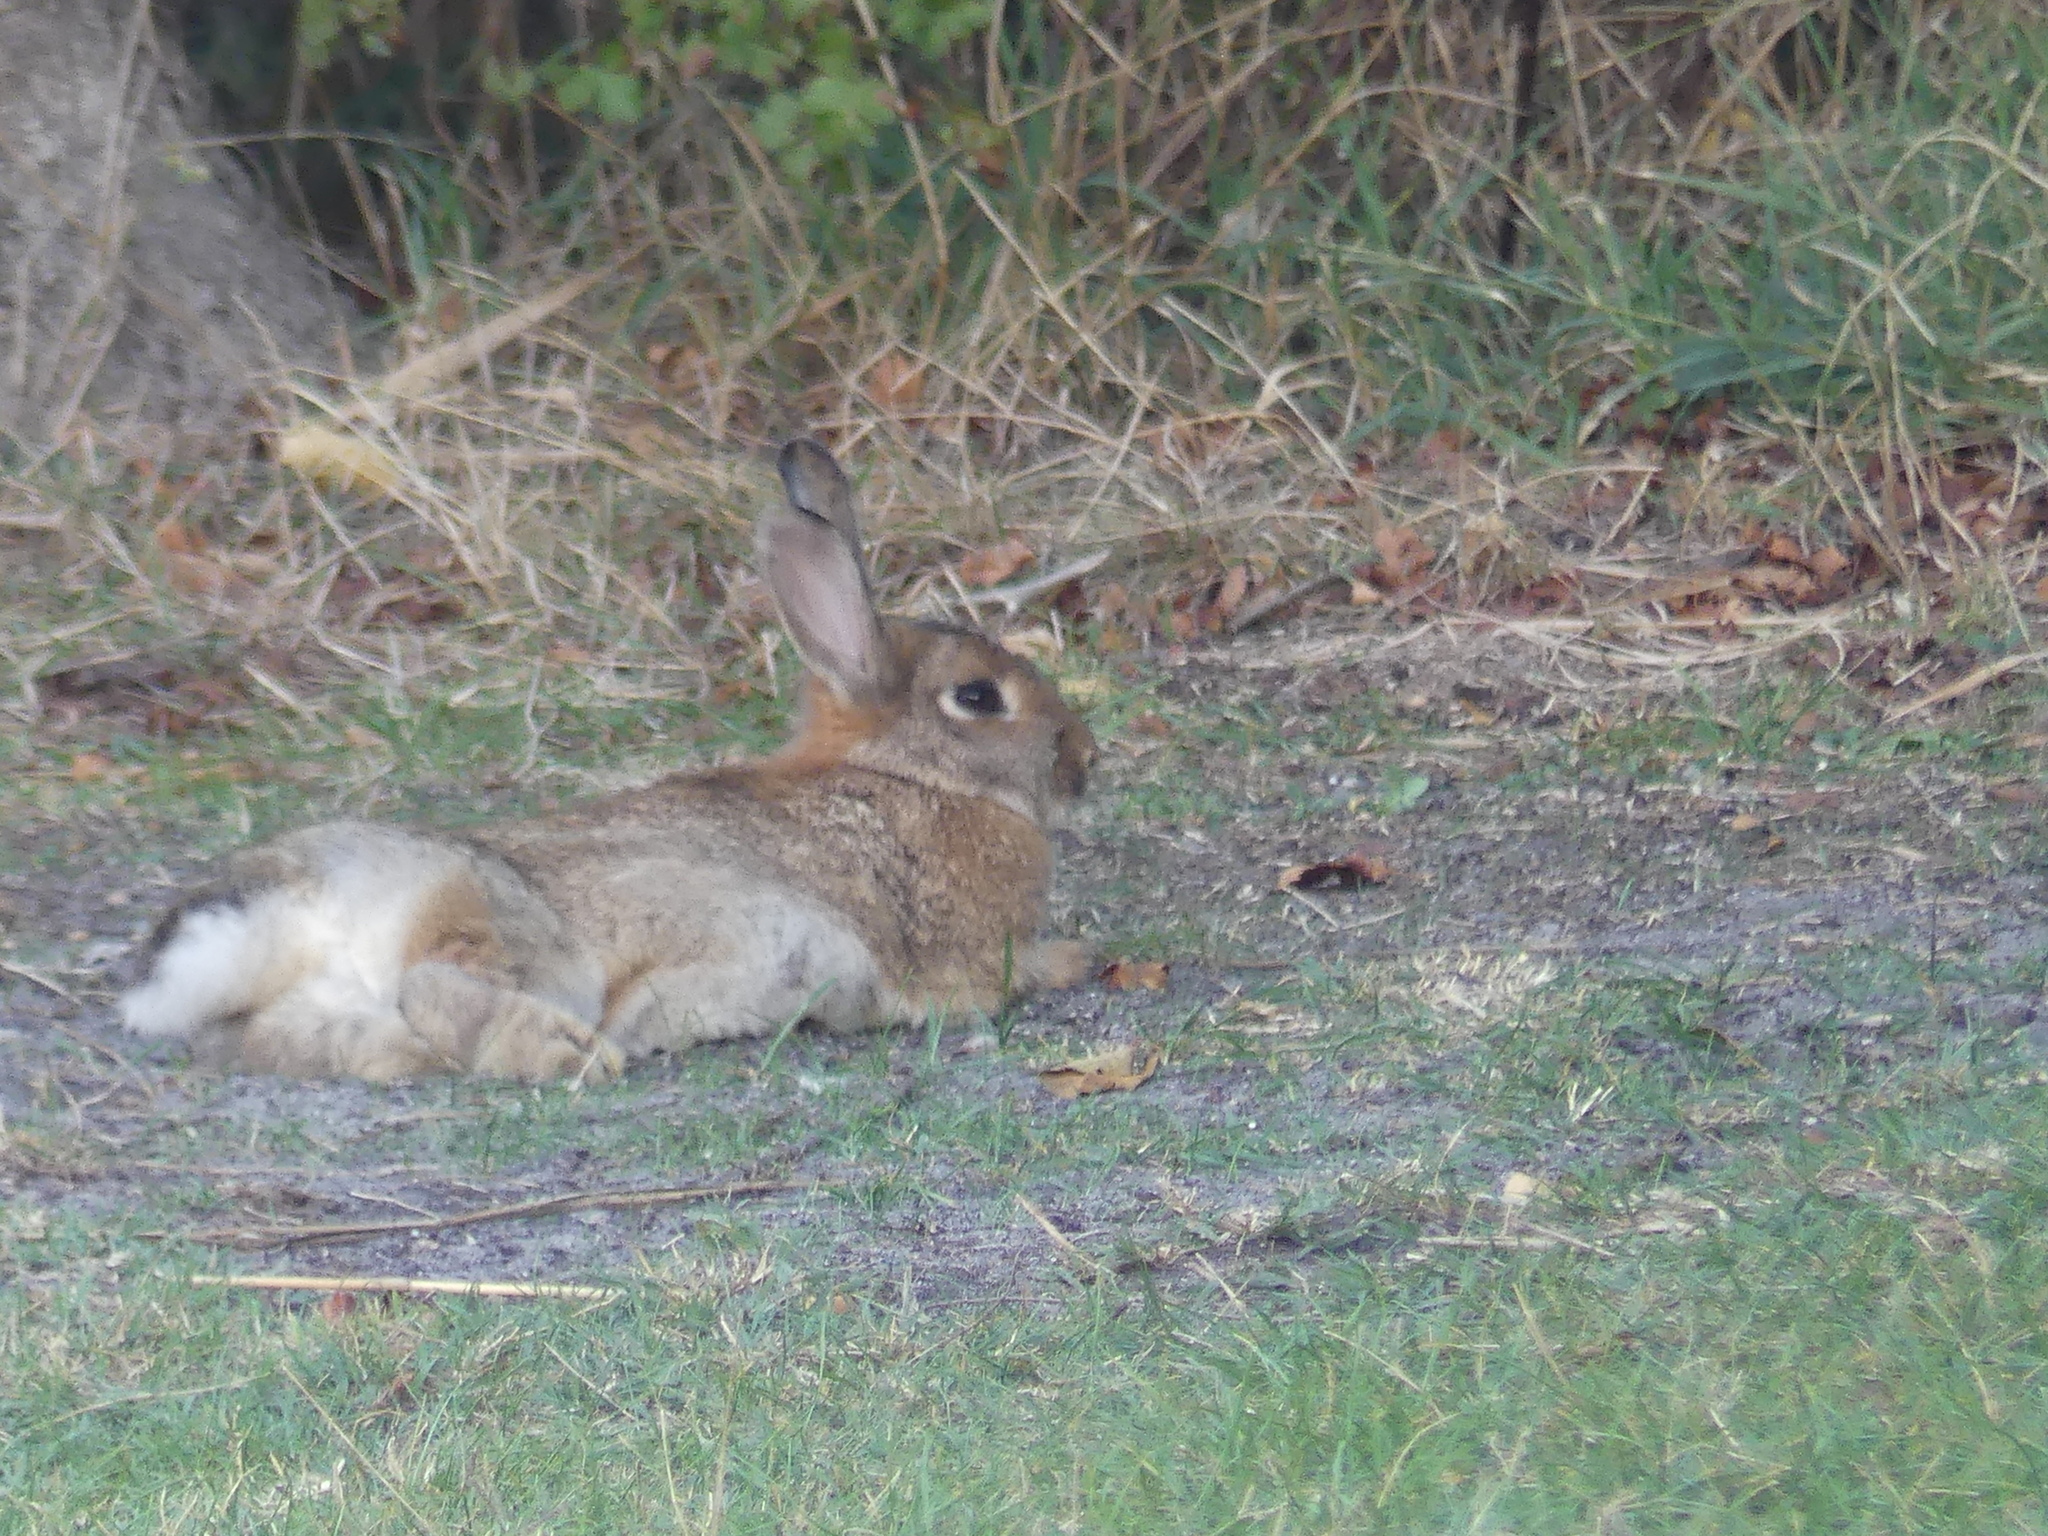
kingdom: Animalia
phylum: Chordata
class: Mammalia
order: Lagomorpha
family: Leporidae
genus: Oryctolagus
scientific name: Oryctolagus cuniculus
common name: European rabbit
